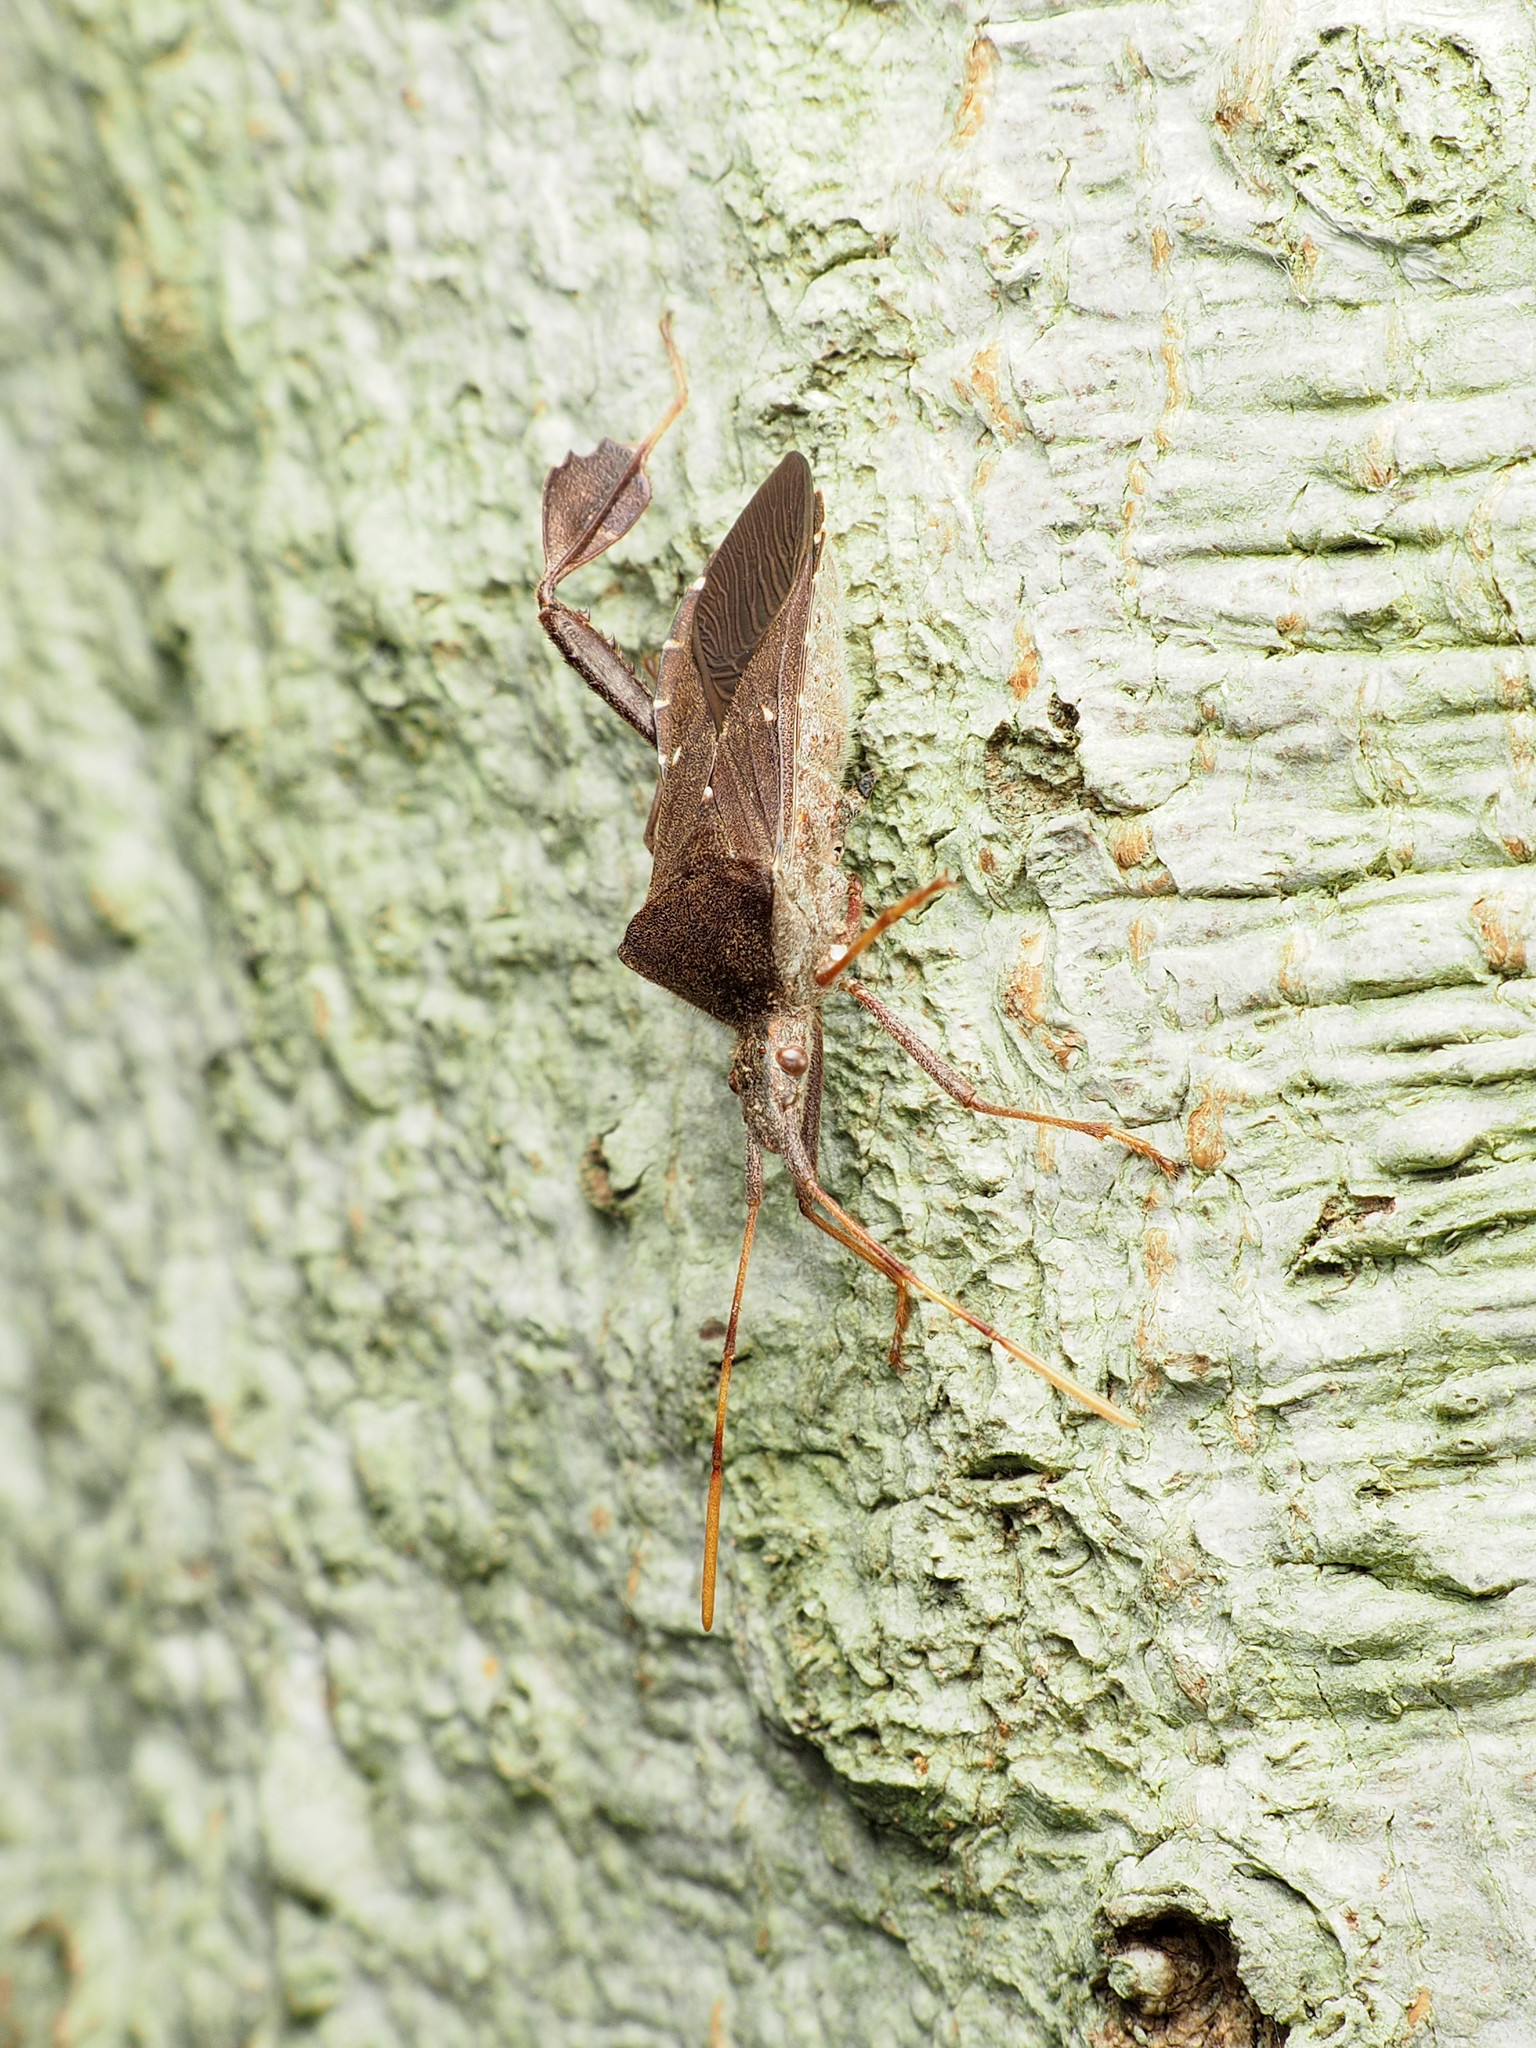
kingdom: Animalia
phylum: Arthropoda
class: Insecta
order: Hemiptera
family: Coreidae
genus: Leptoglossus
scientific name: Leptoglossus oppositus
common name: Northern leaf-footed bug
